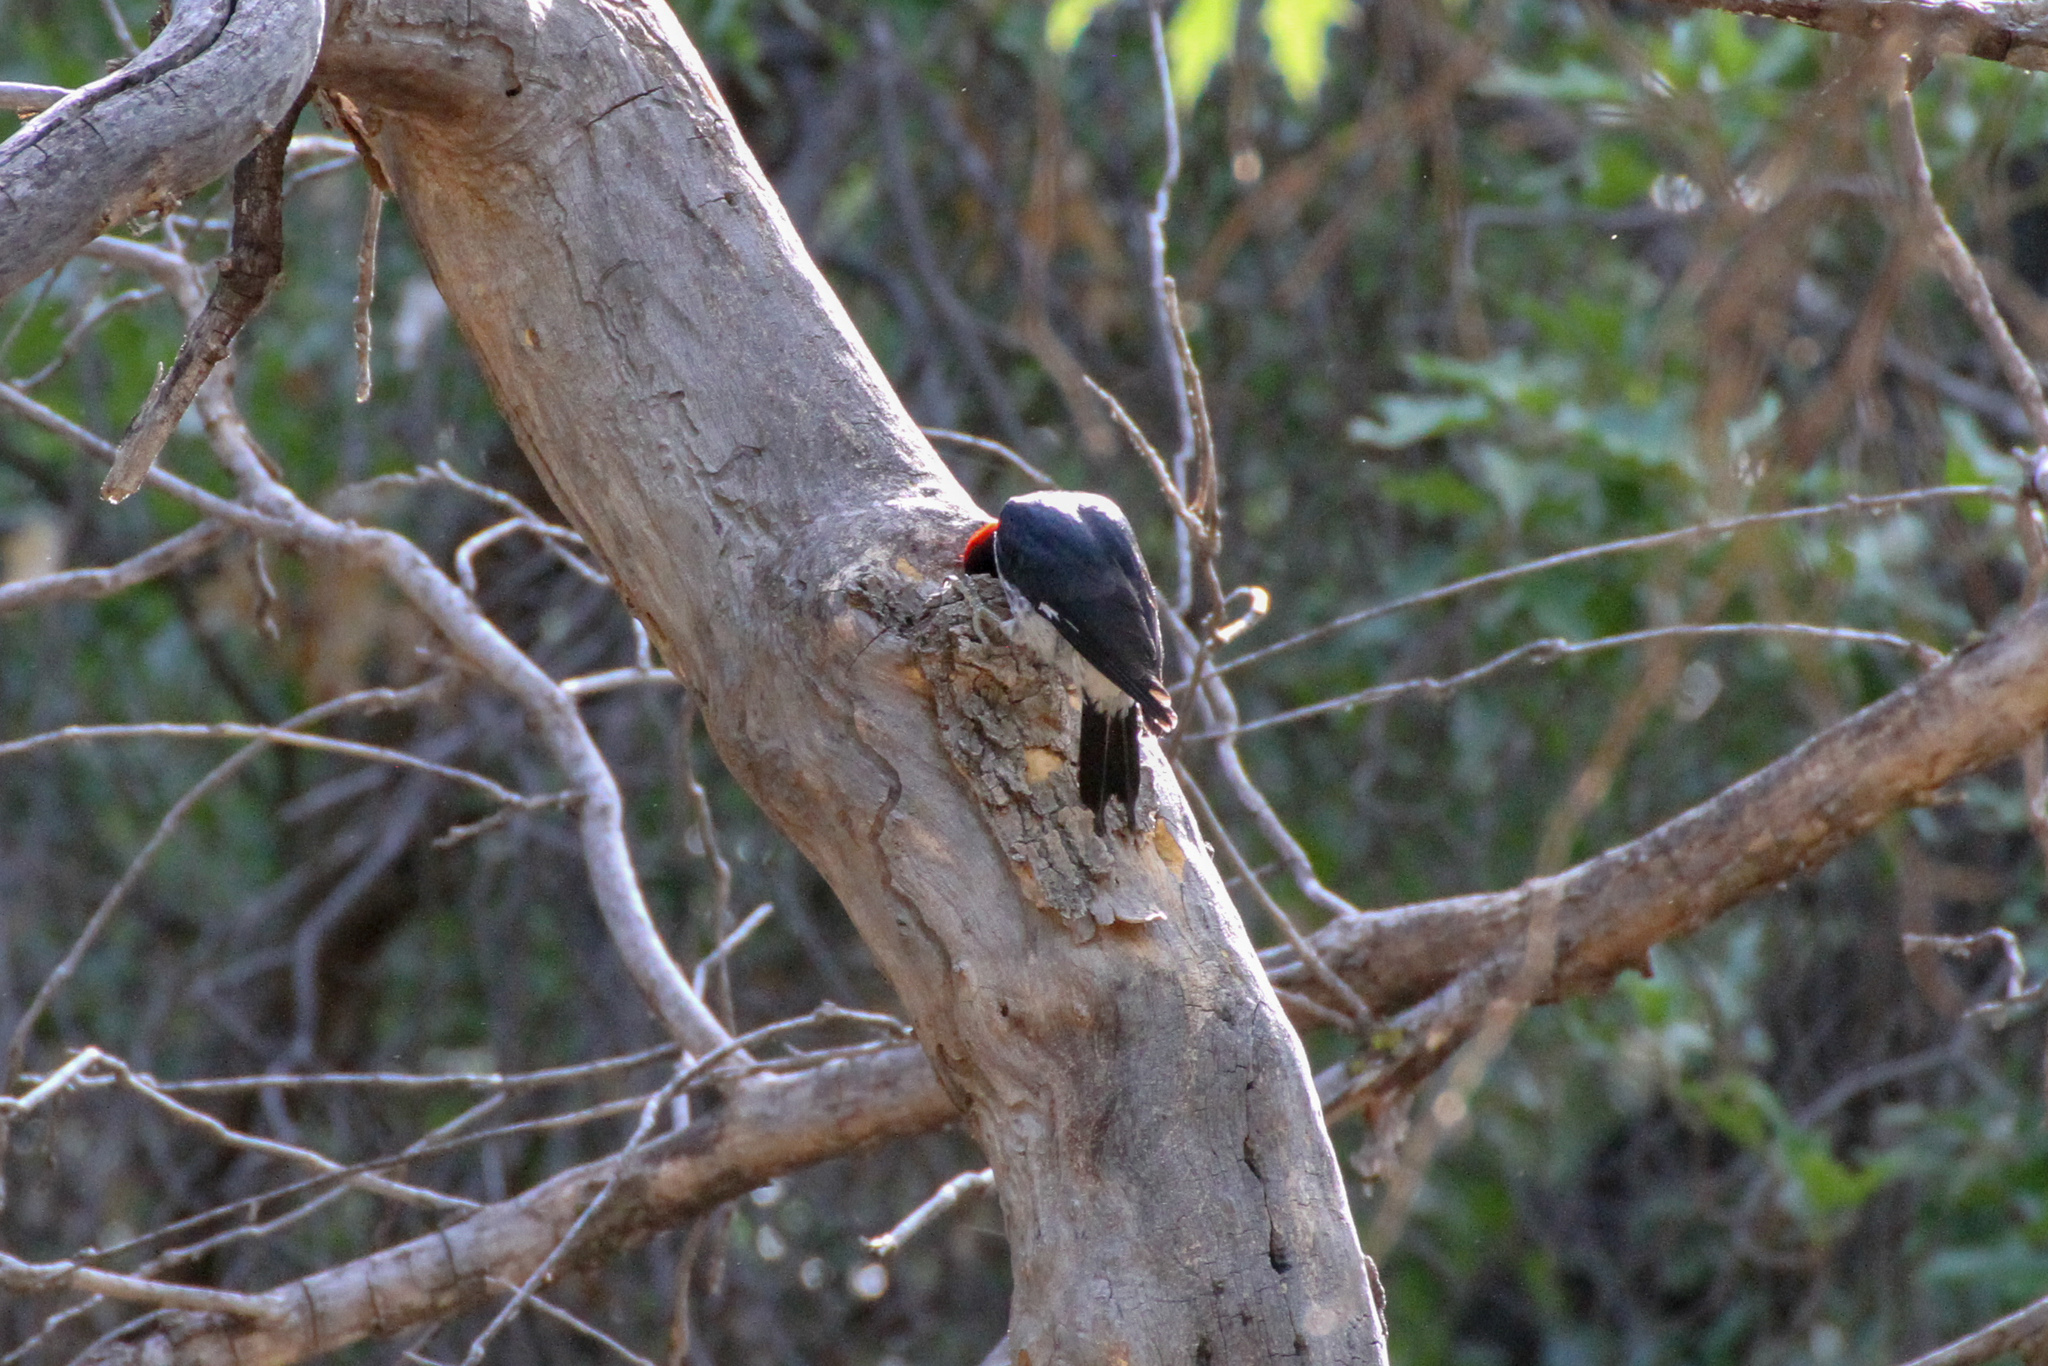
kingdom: Animalia
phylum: Chordata
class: Aves
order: Piciformes
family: Picidae
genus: Melanerpes
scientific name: Melanerpes formicivorus
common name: Acorn woodpecker
